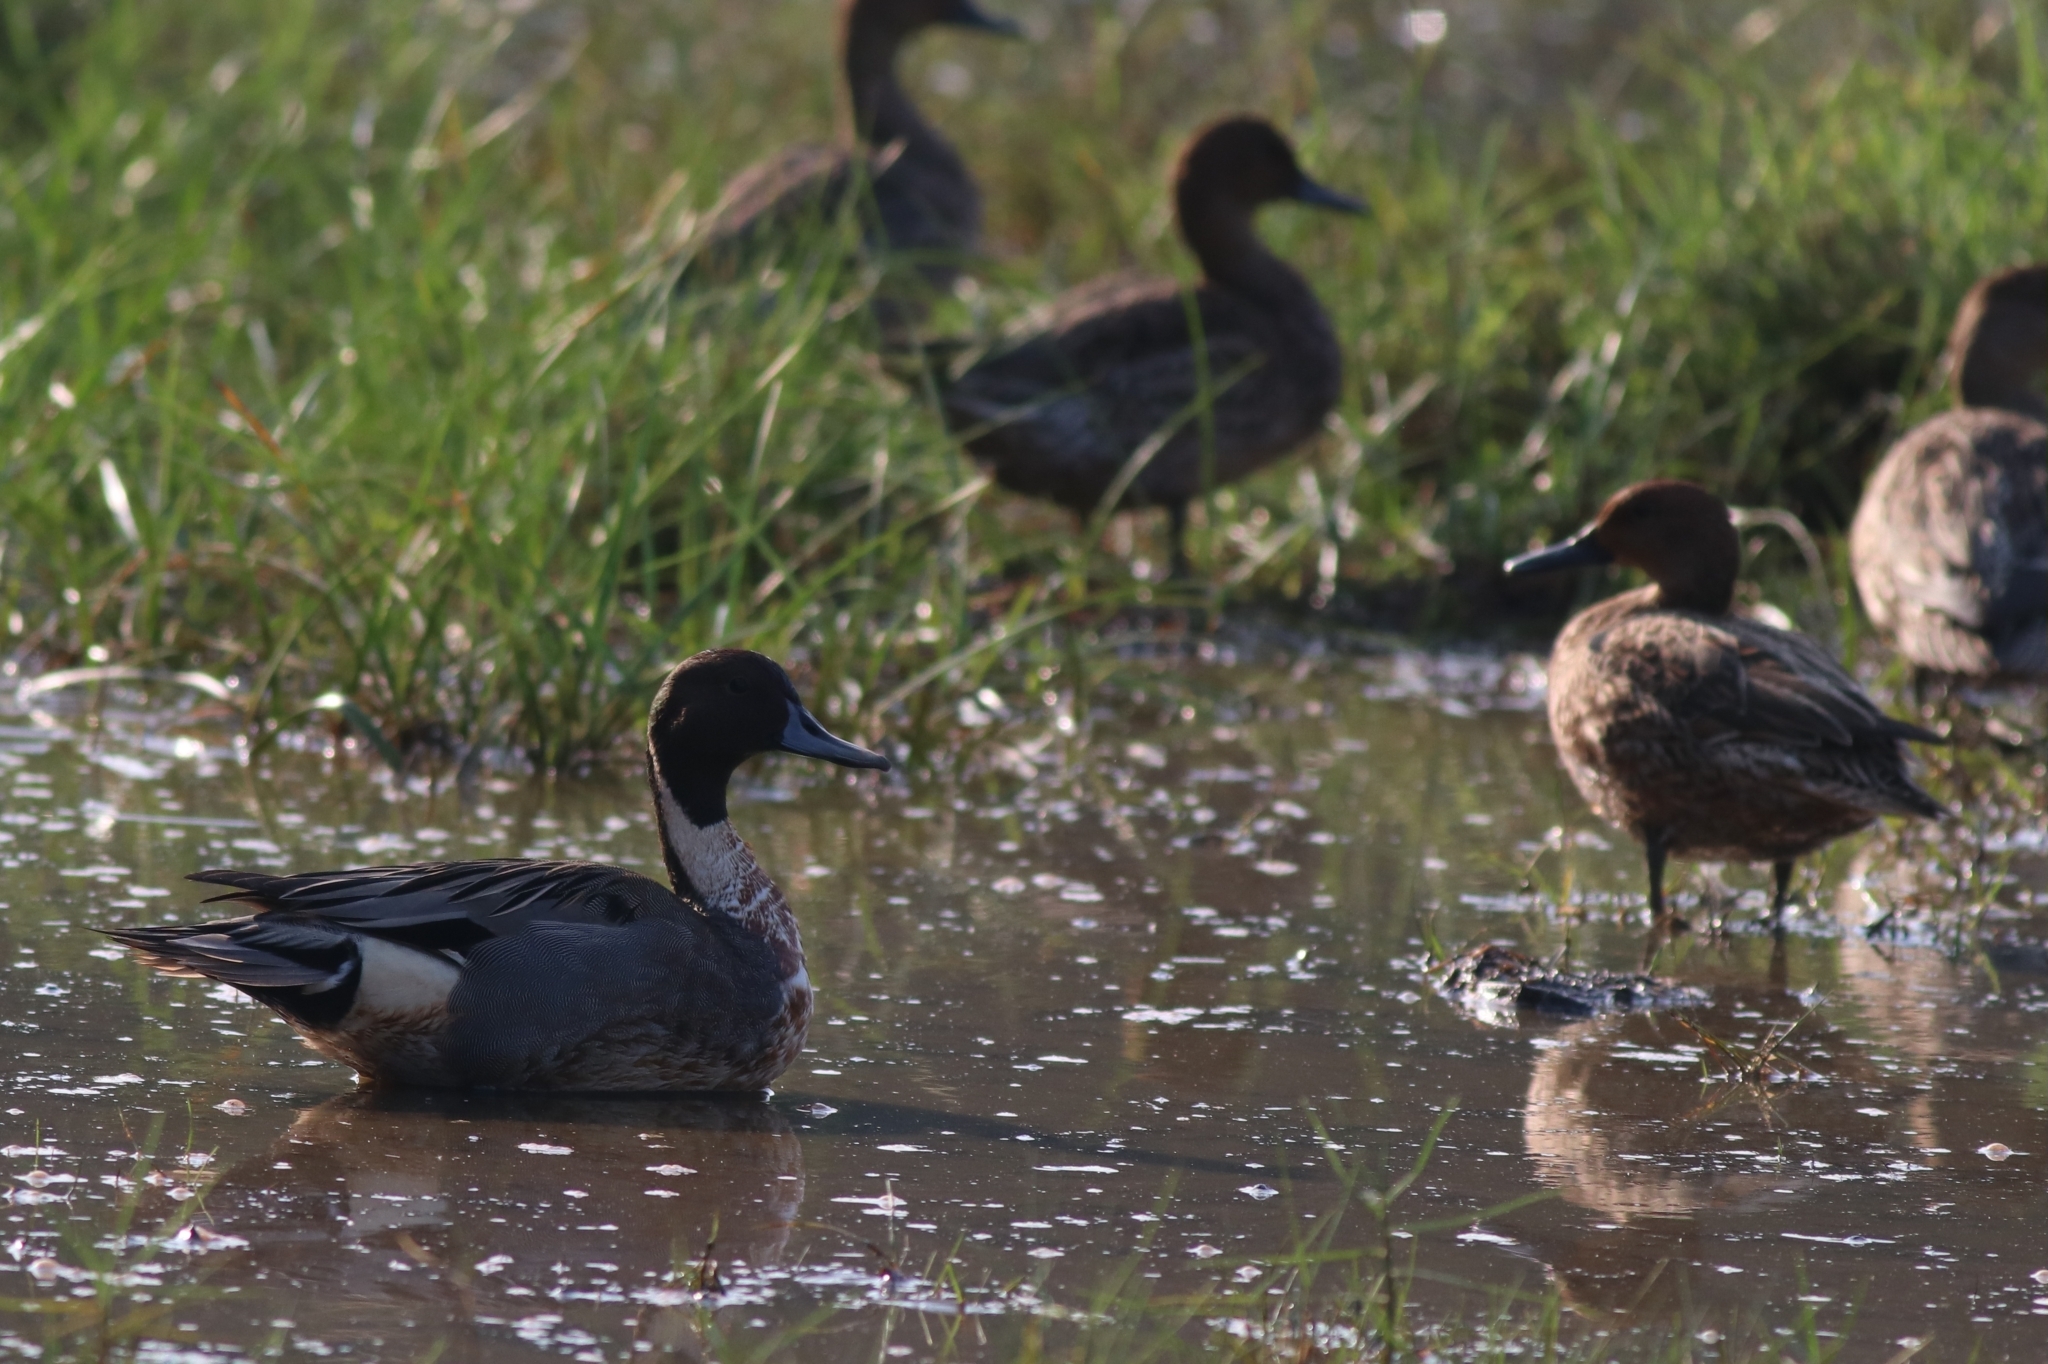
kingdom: Animalia
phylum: Chordata
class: Aves
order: Anseriformes
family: Anatidae
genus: Anas
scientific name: Anas acuta
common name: Northern pintail
